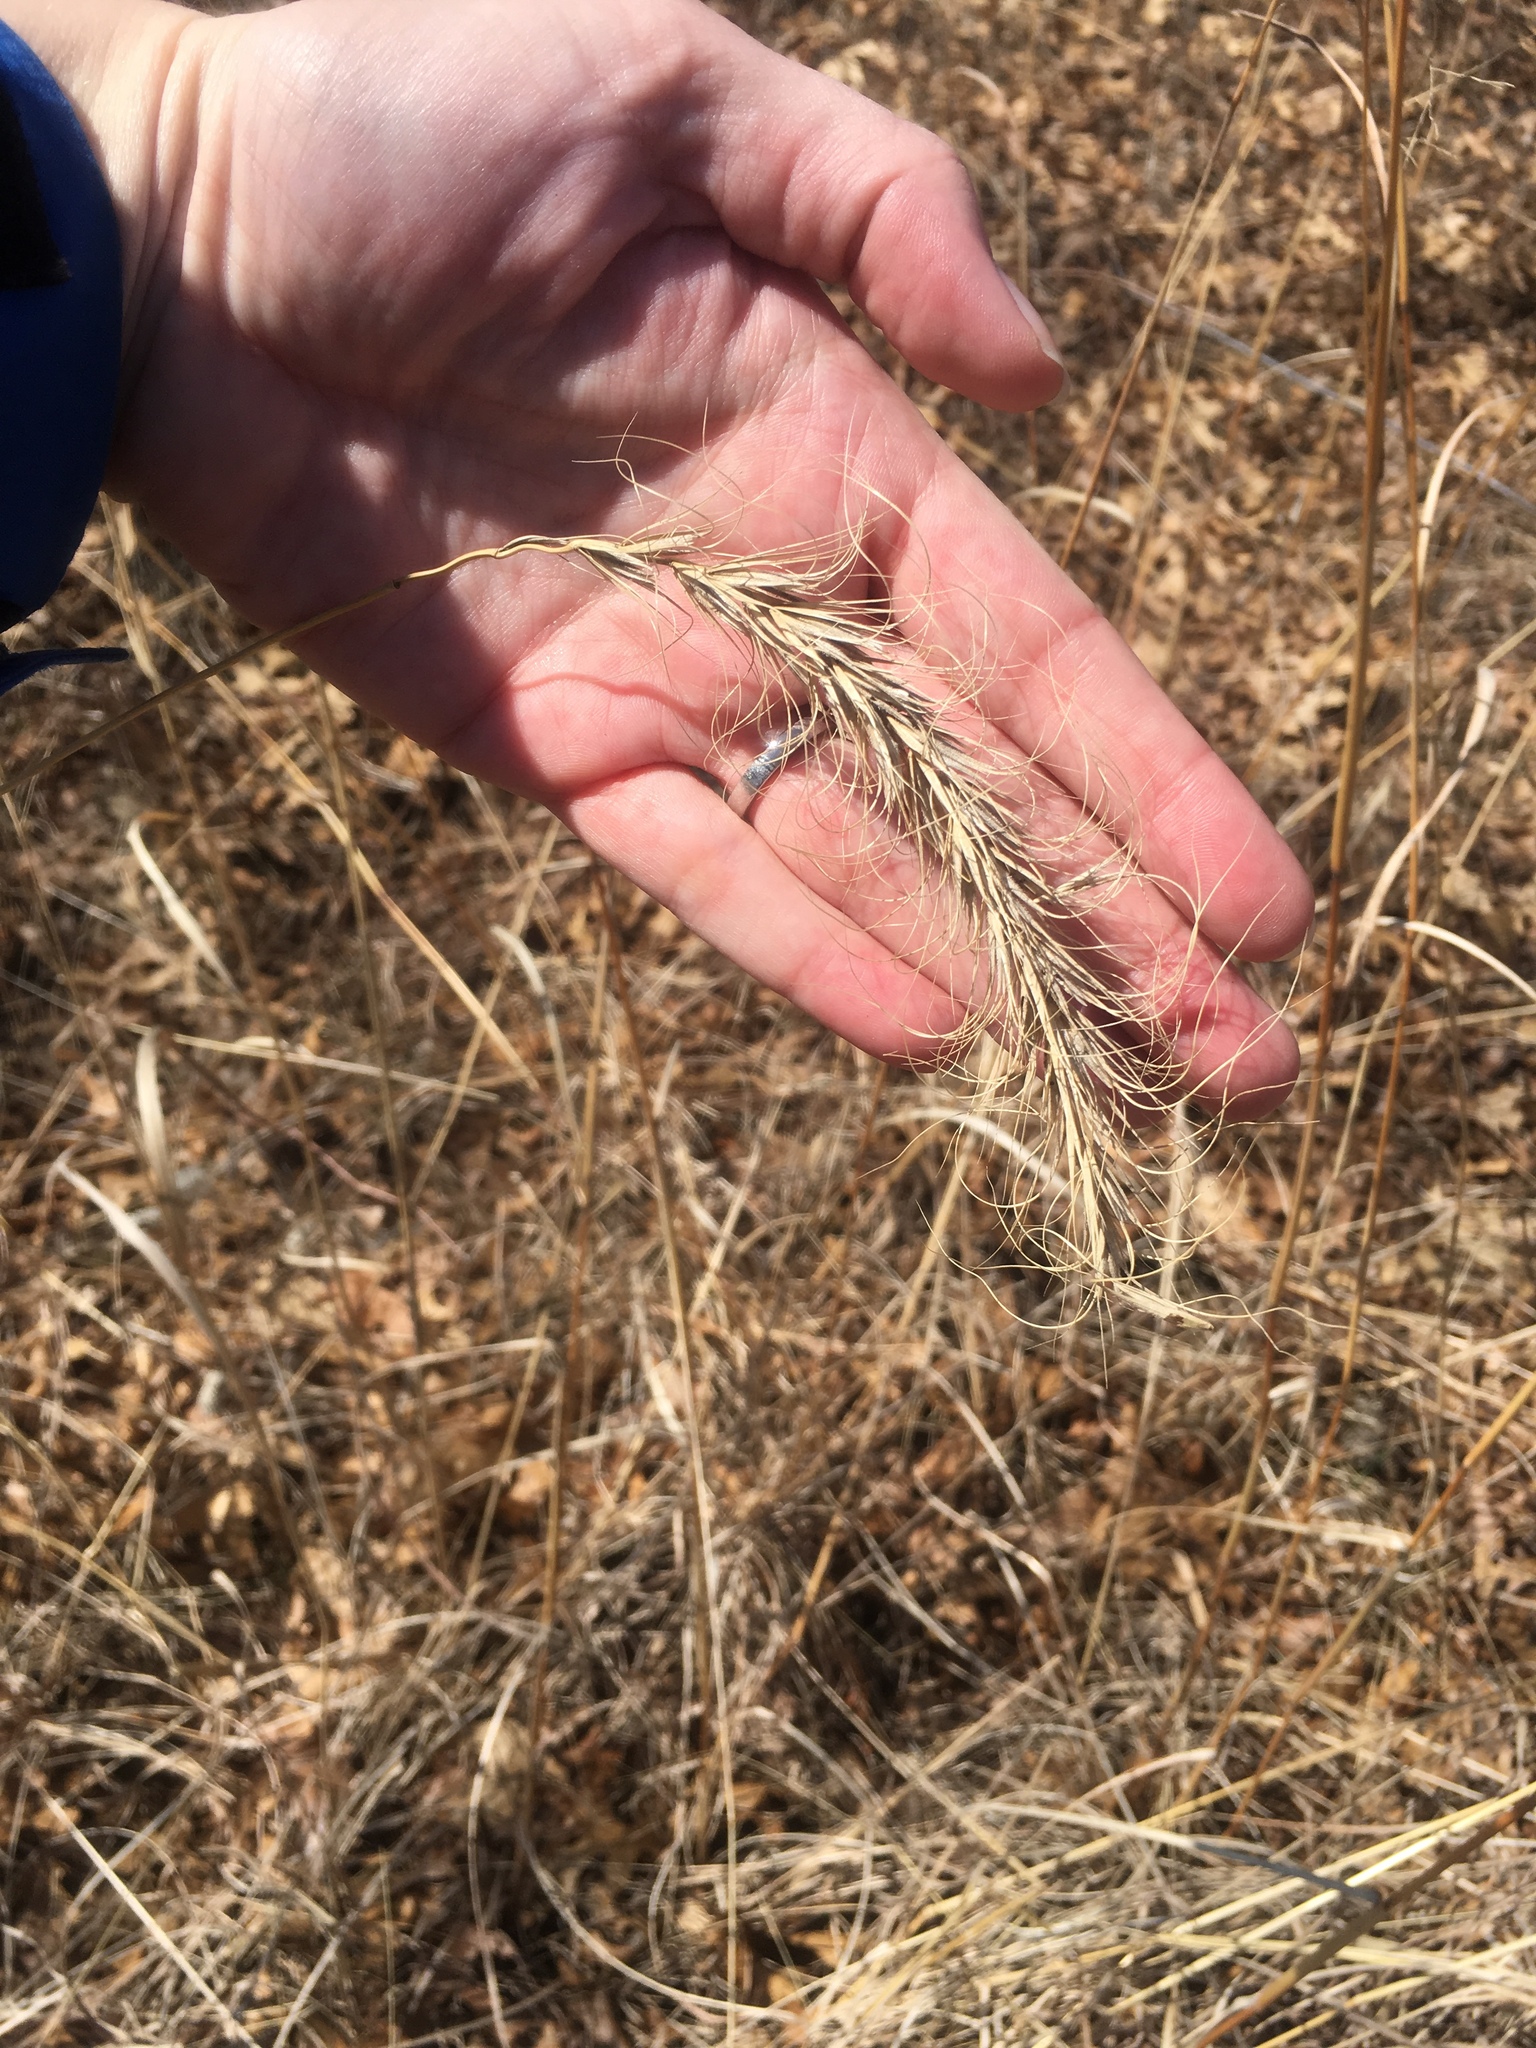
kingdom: Plantae
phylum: Tracheophyta
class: Liliopsida
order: Poales
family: Poaceae
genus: Elymus
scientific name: Elymus canadensis
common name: Canada wild rye
